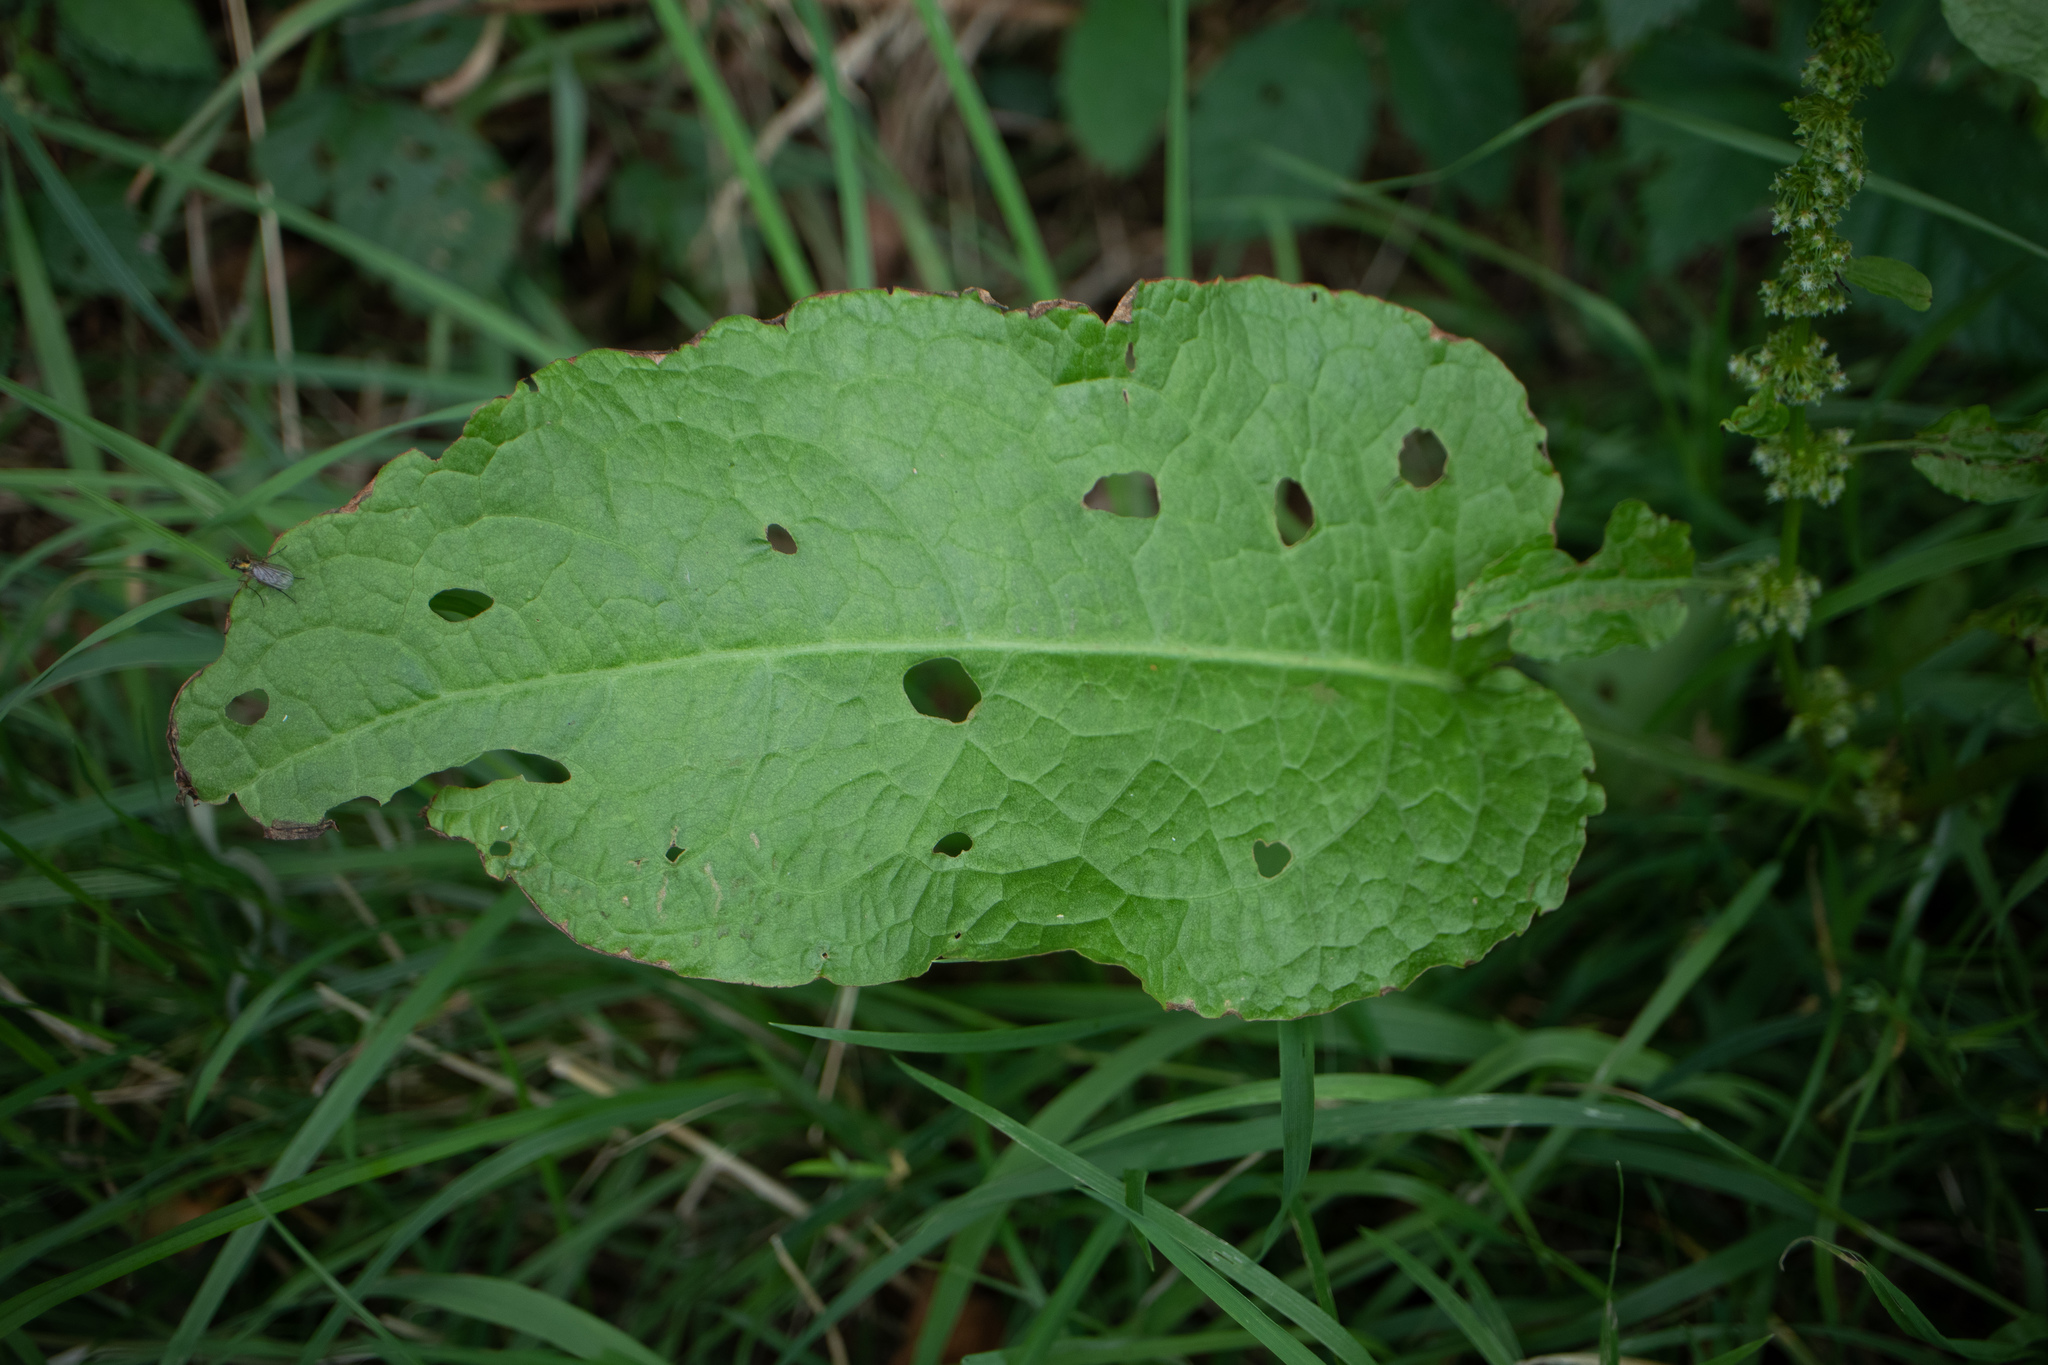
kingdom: Plantae
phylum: Tracheophyta
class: Magnoliopsida
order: Caryophyllales
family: Polygonaceae
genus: Rumex
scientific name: Rumex obtusifolius
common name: Bitter dock
